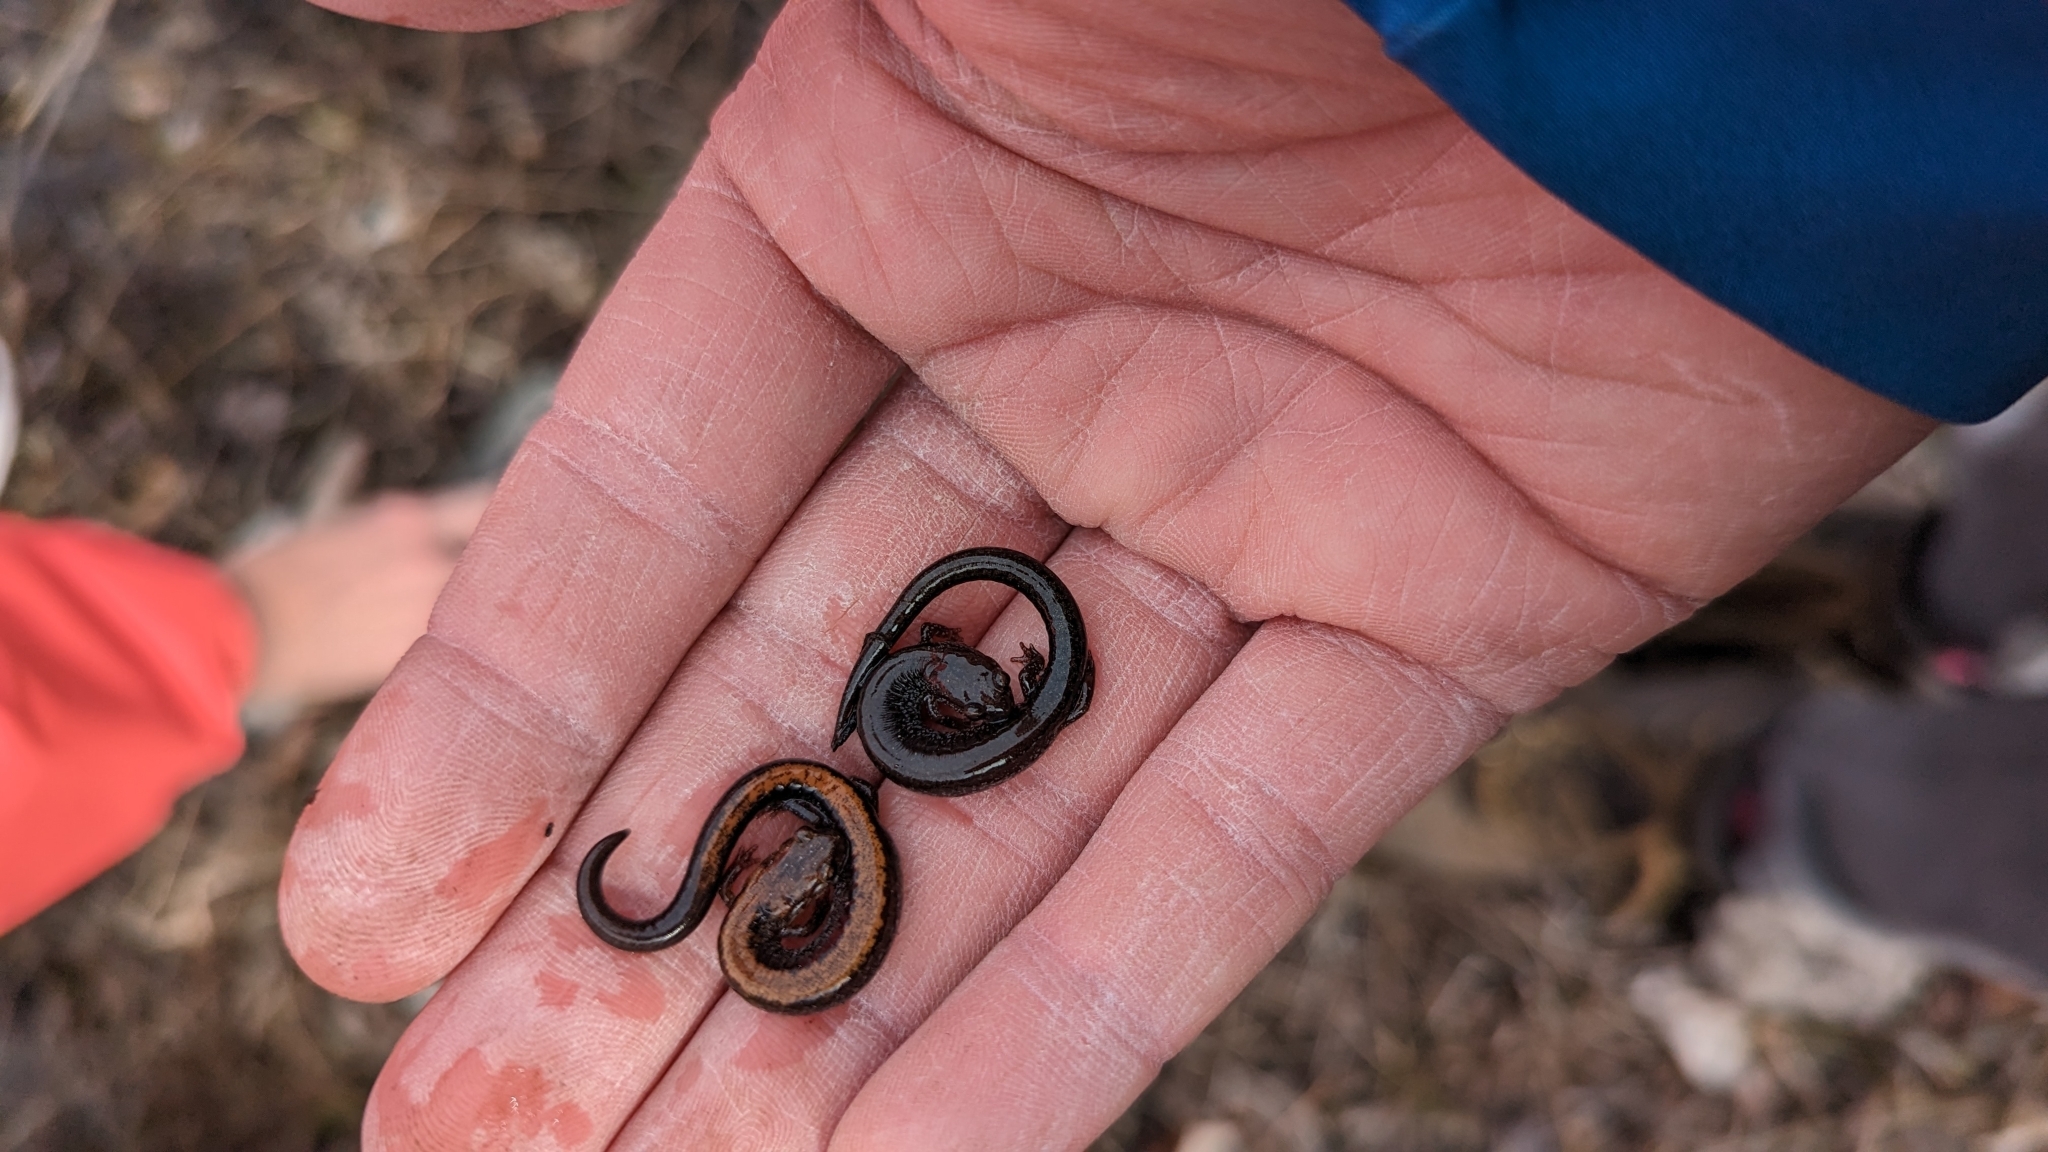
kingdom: Animalia
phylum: Chordata
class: Amphibia
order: Caudata
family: Plethodontidae
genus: Plethodon
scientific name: Plethodon cinereus
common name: Redback salamander
